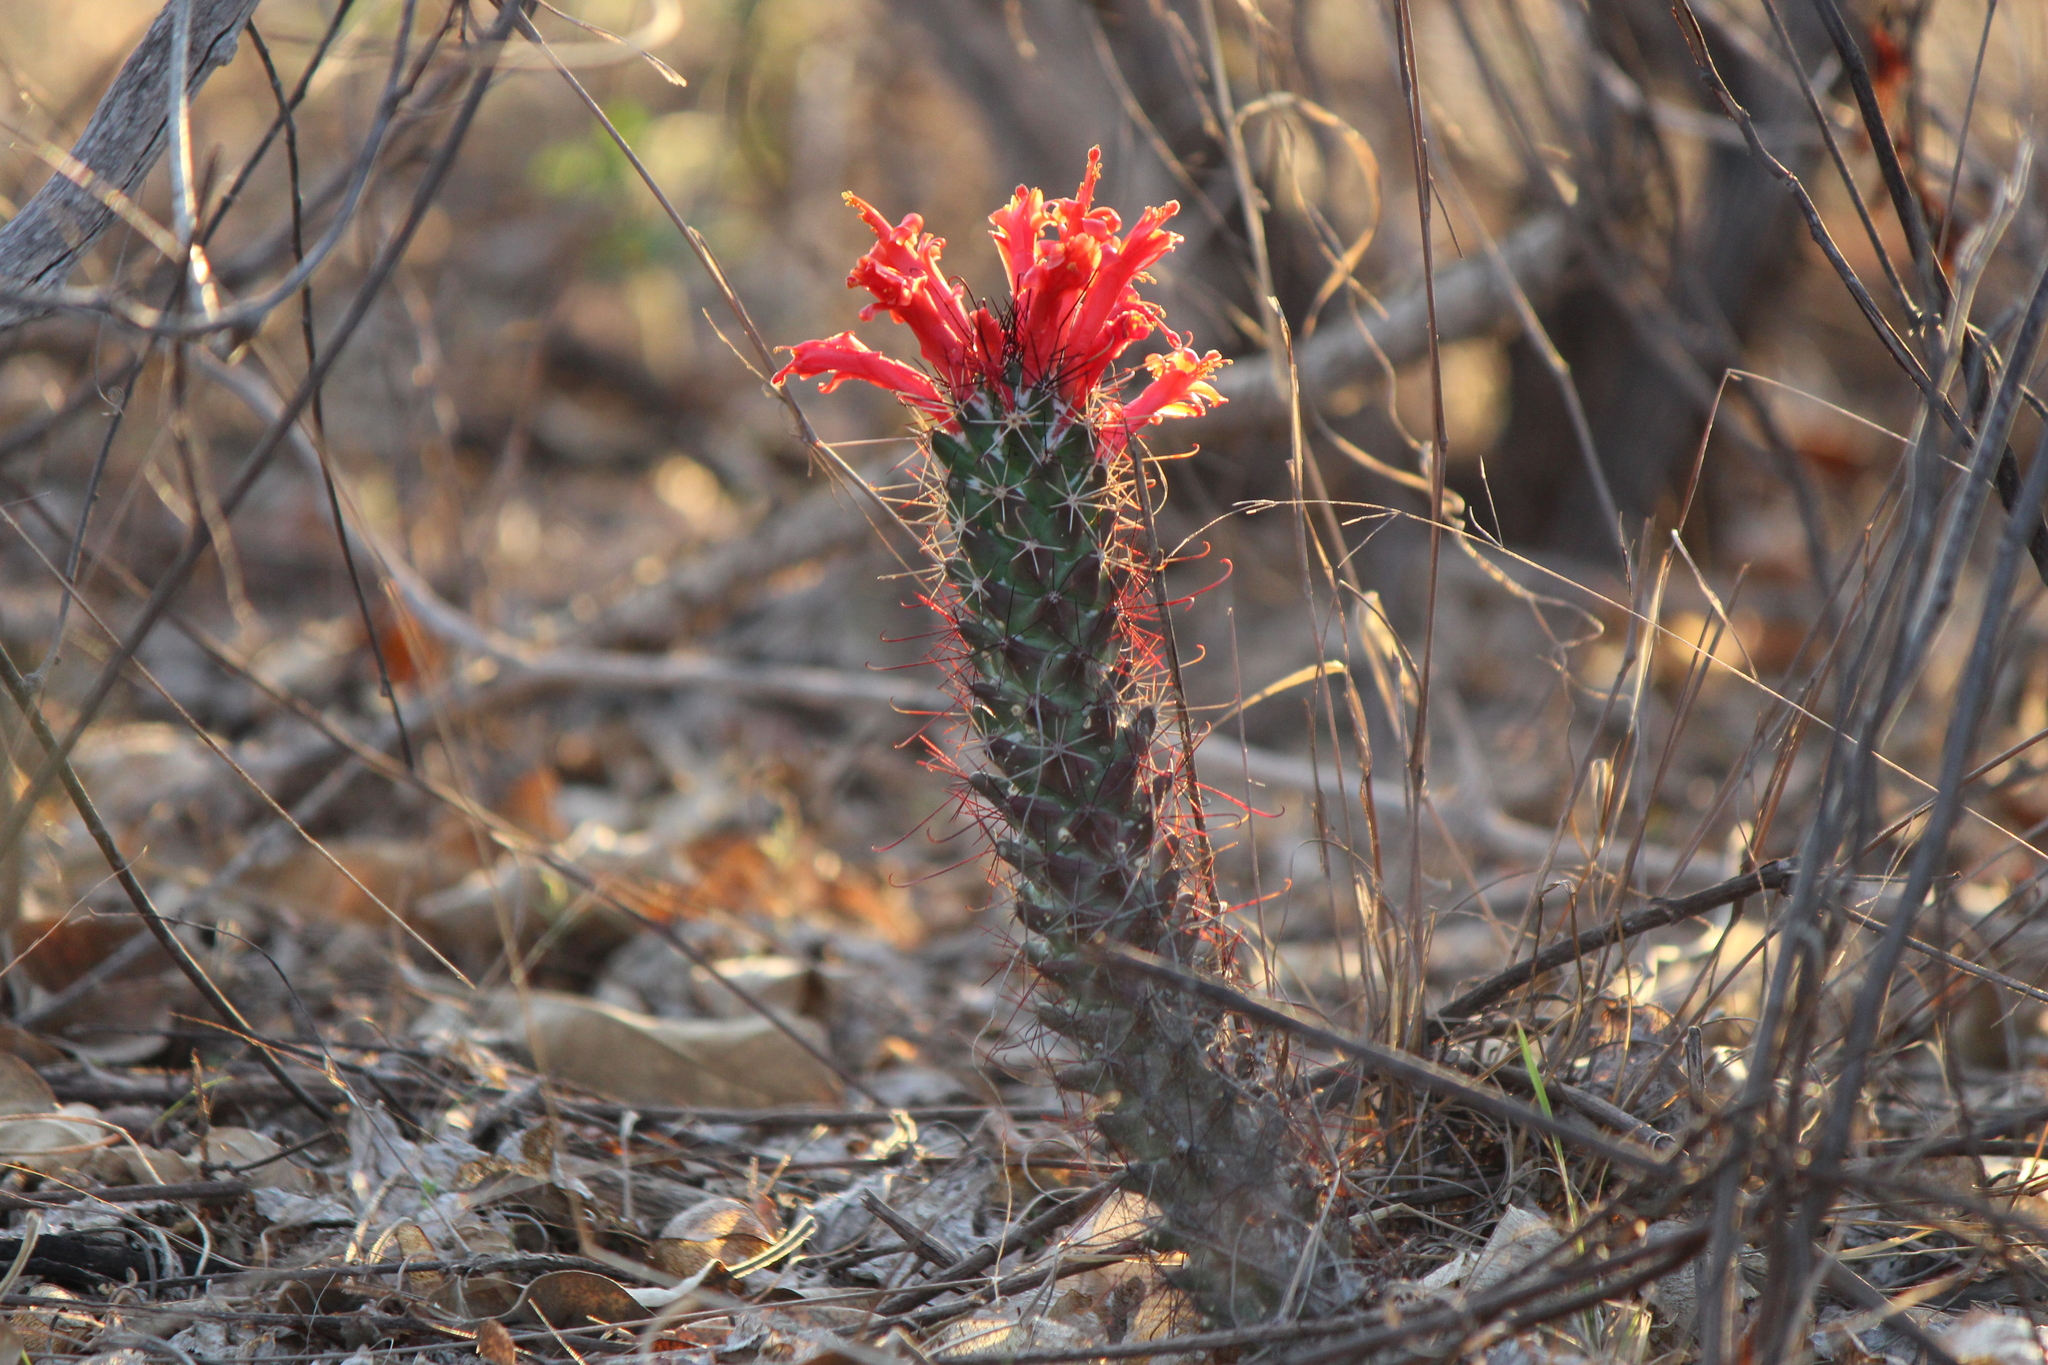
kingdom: Plantae
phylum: Tracheophyta
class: Magnoliopsida
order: Caryophyllales
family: Cactaceae
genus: Cochemiea
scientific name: Cochemiea poselgeri
